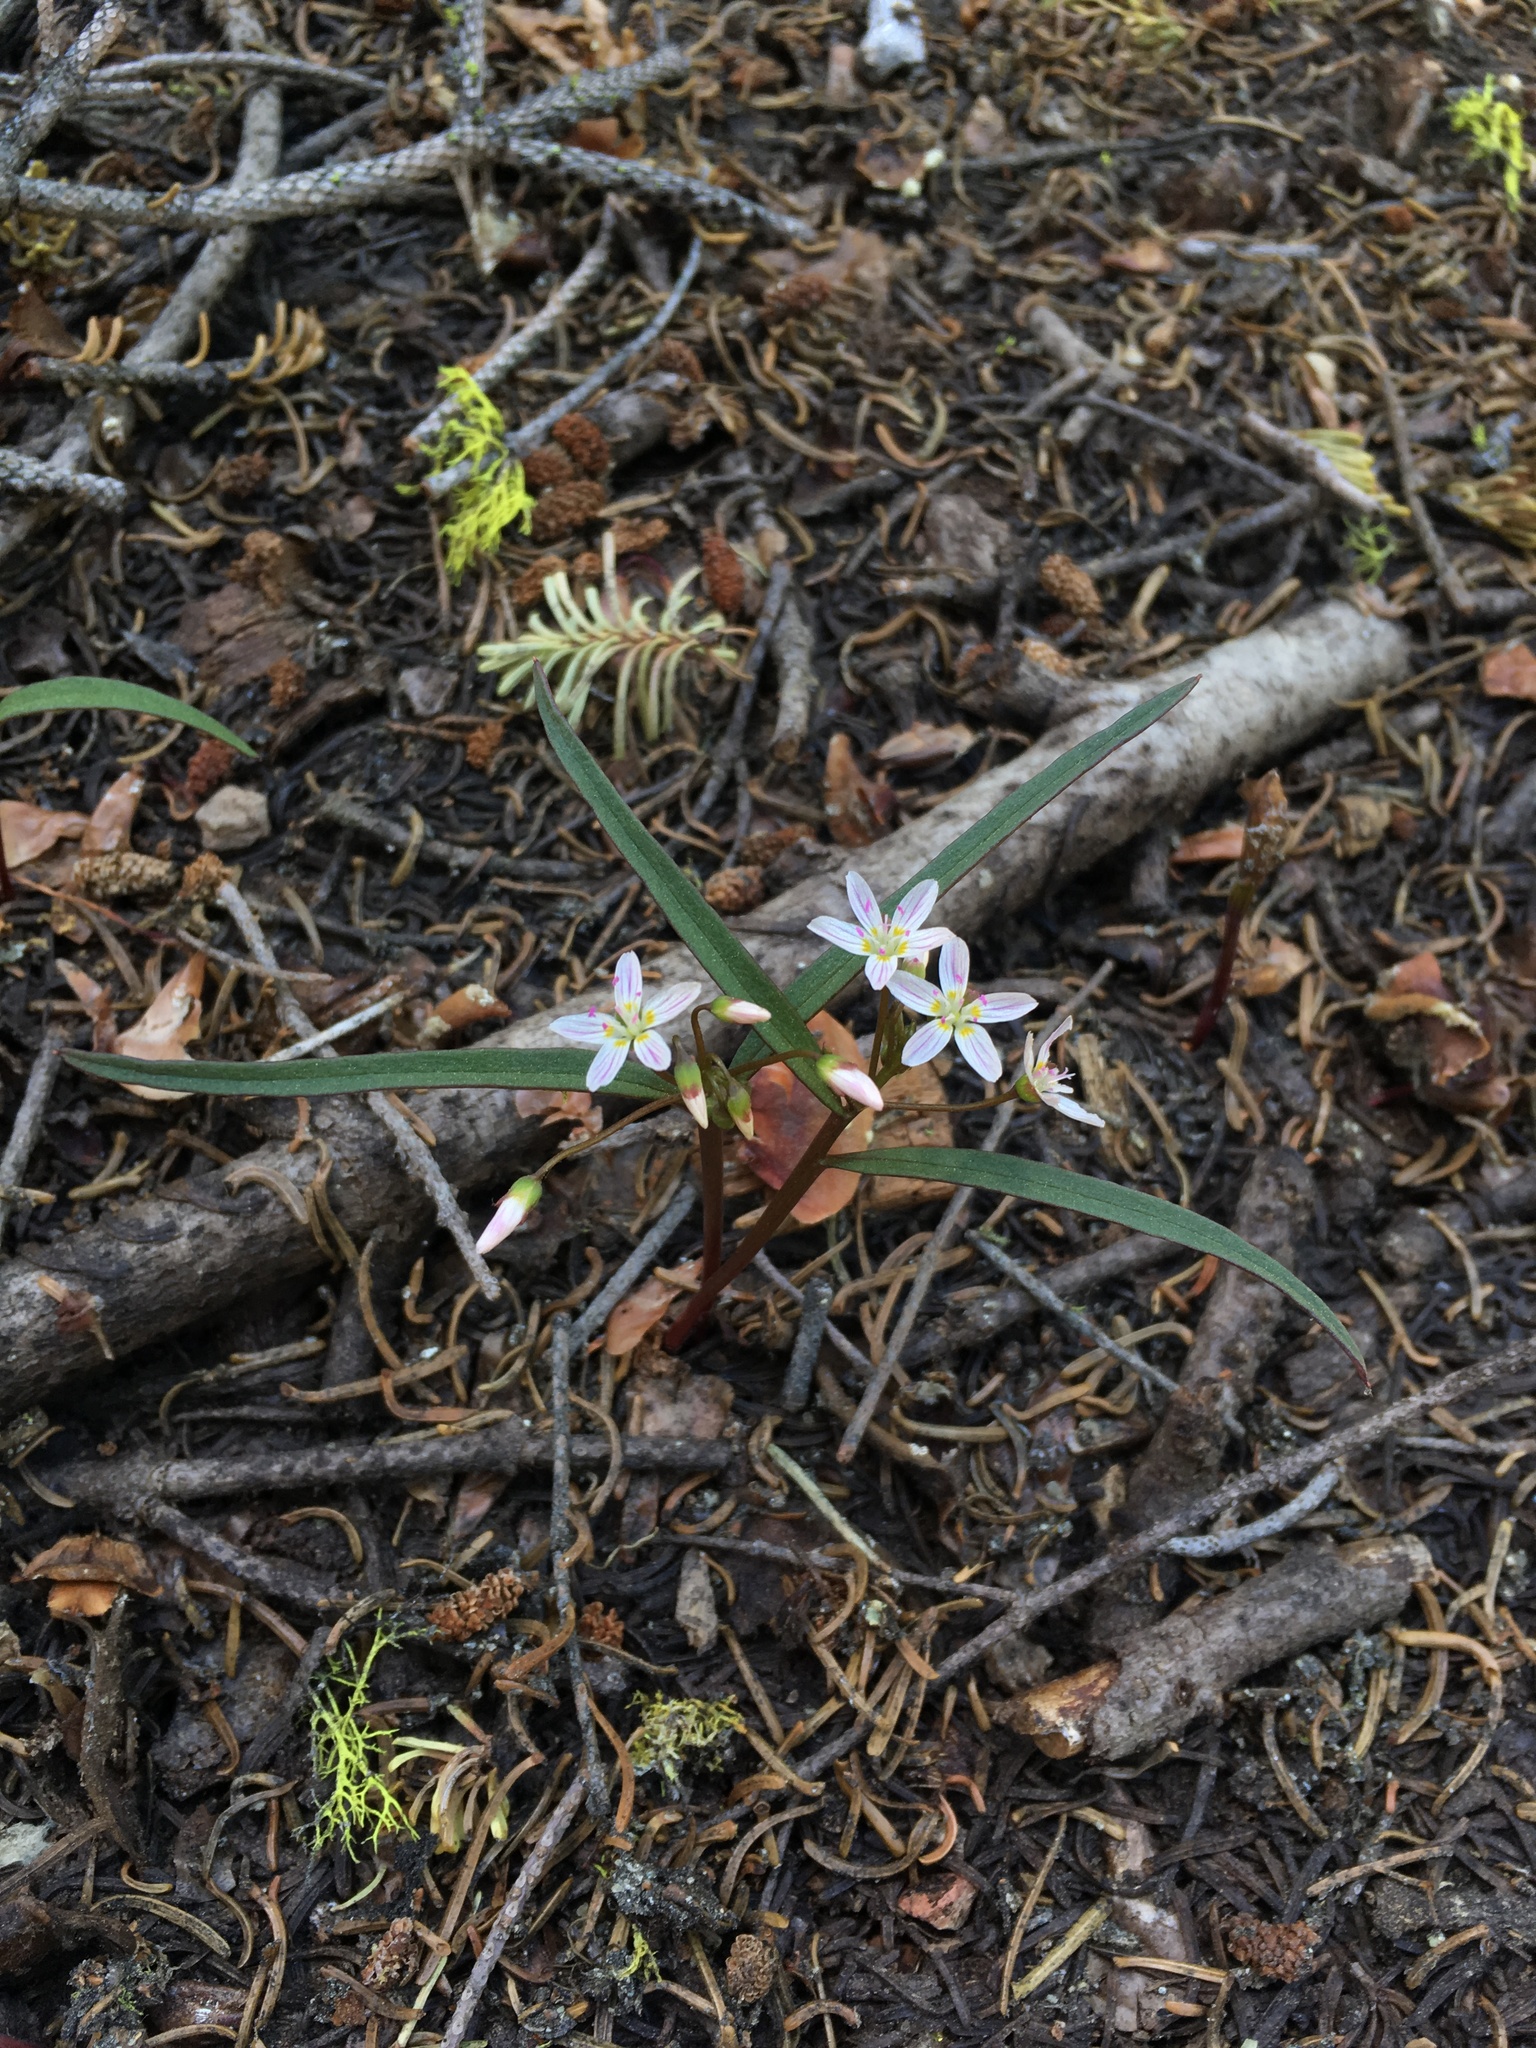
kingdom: Plantae
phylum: Tracheophyta
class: Magnoliopsida
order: Caryophyllales
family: Montiaceae
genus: Claytonia
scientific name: Claytonia lanceolata
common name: Western spring-beauty
